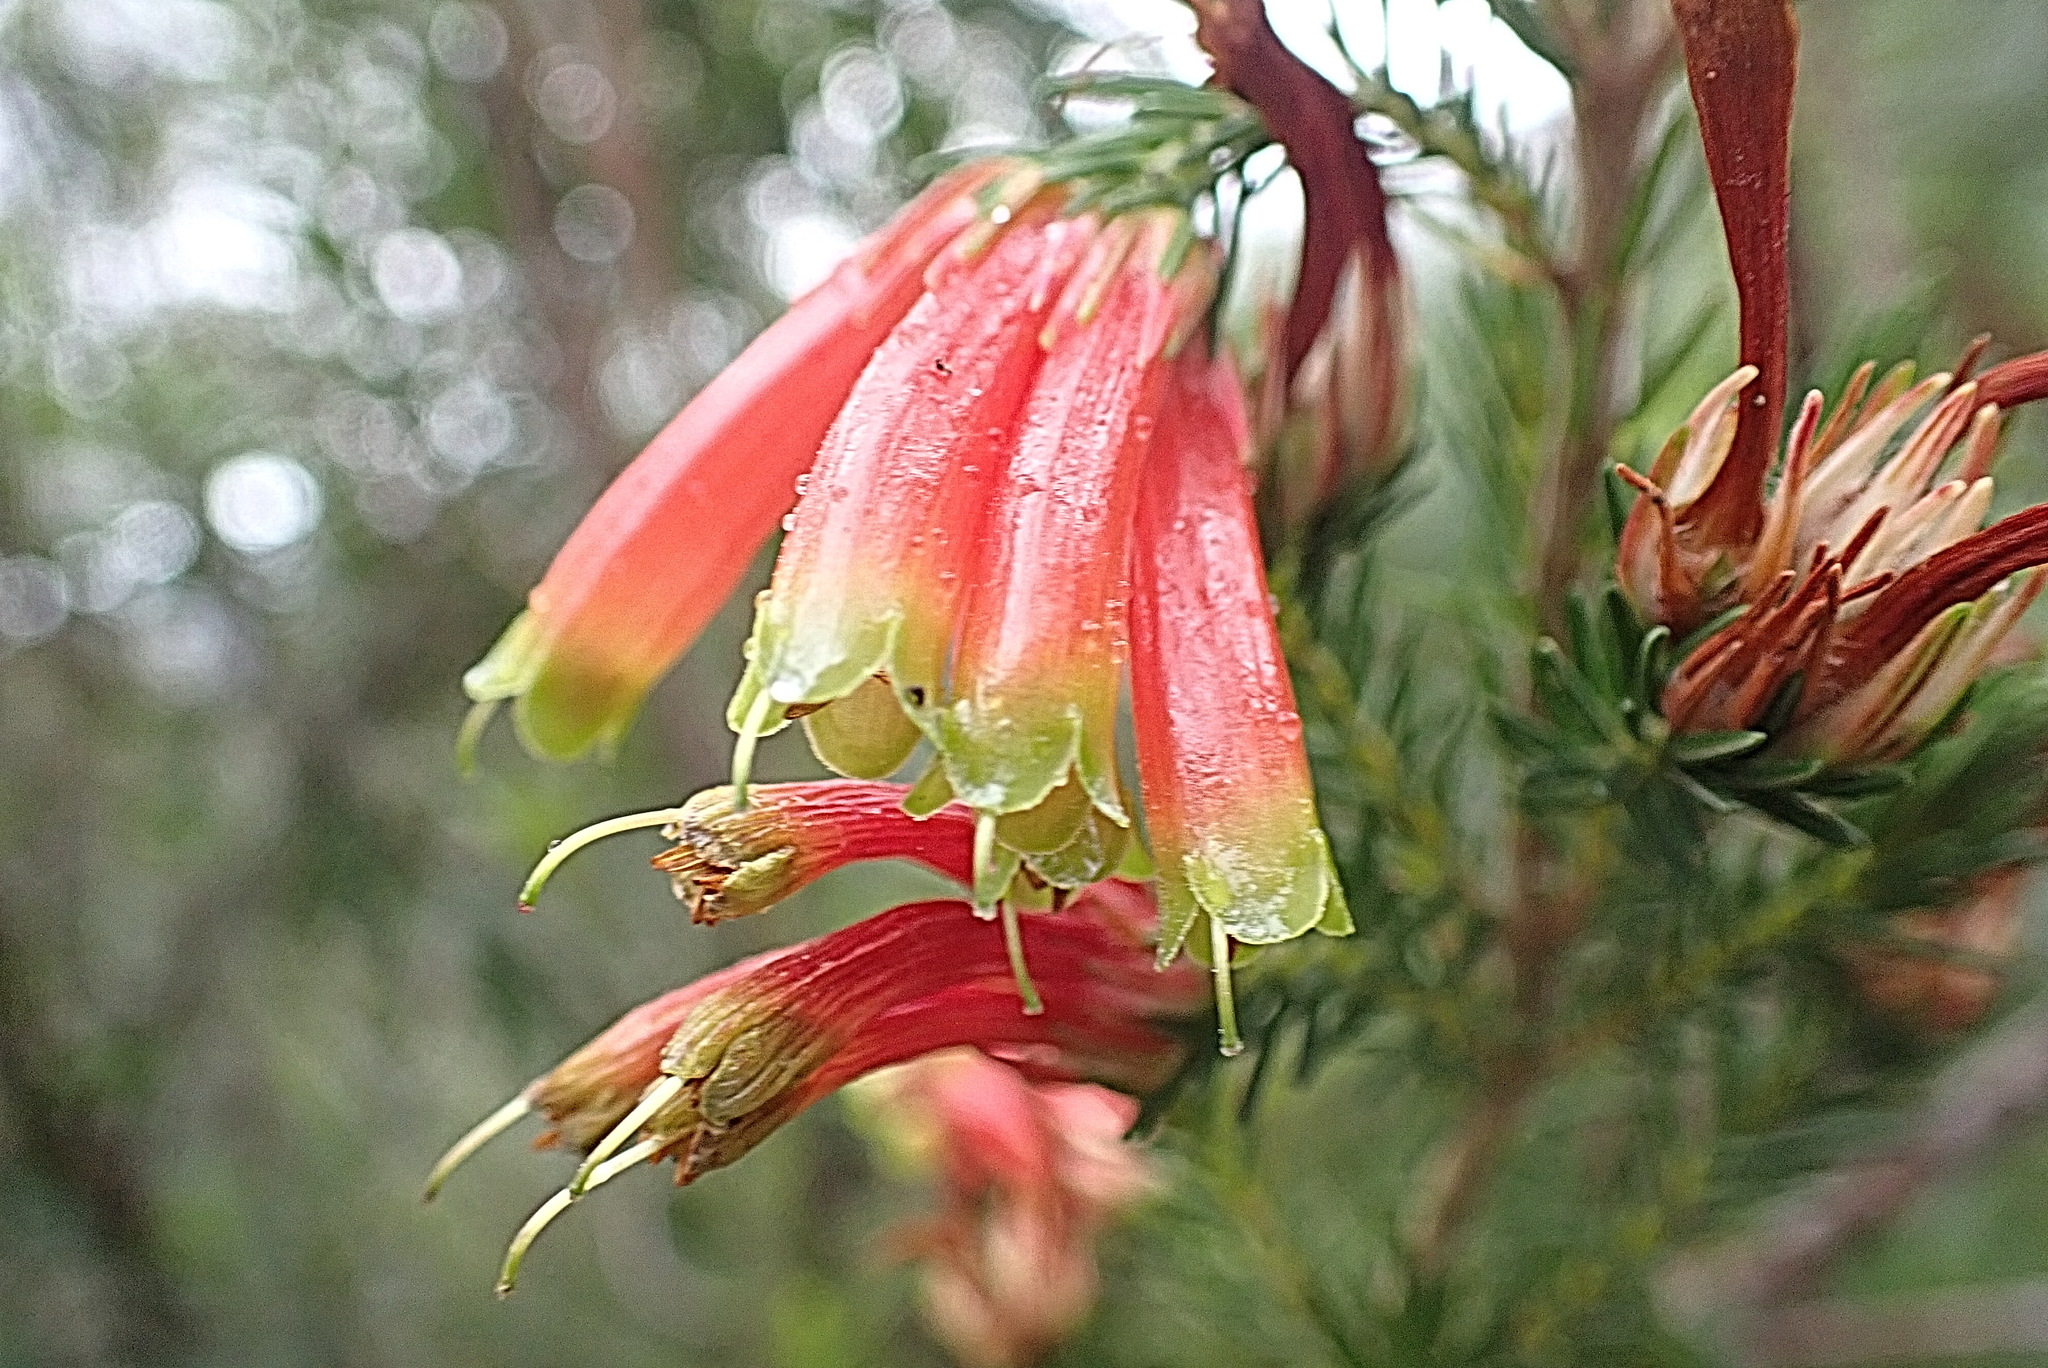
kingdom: Plantae
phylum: Tracheophyta
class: Magnoliopsida
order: Ericales
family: Ericaceae
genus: Erica
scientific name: Erica unicolor
